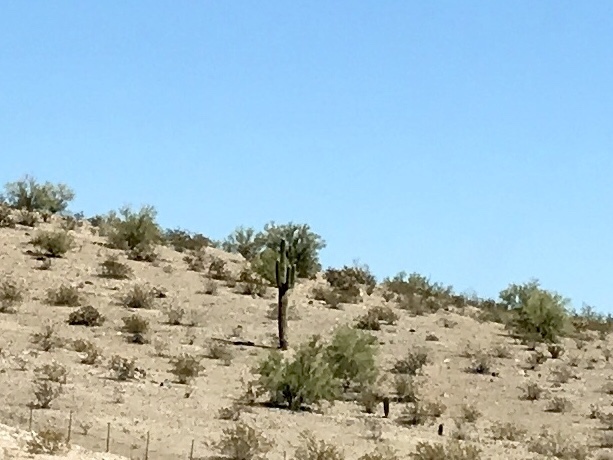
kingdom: Plantae
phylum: Tracheophyta
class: Magnoliopsida
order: Caryophyllales
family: Cactaceae
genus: Carnegiea
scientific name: Carnegiea gigantea
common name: Saguaro
